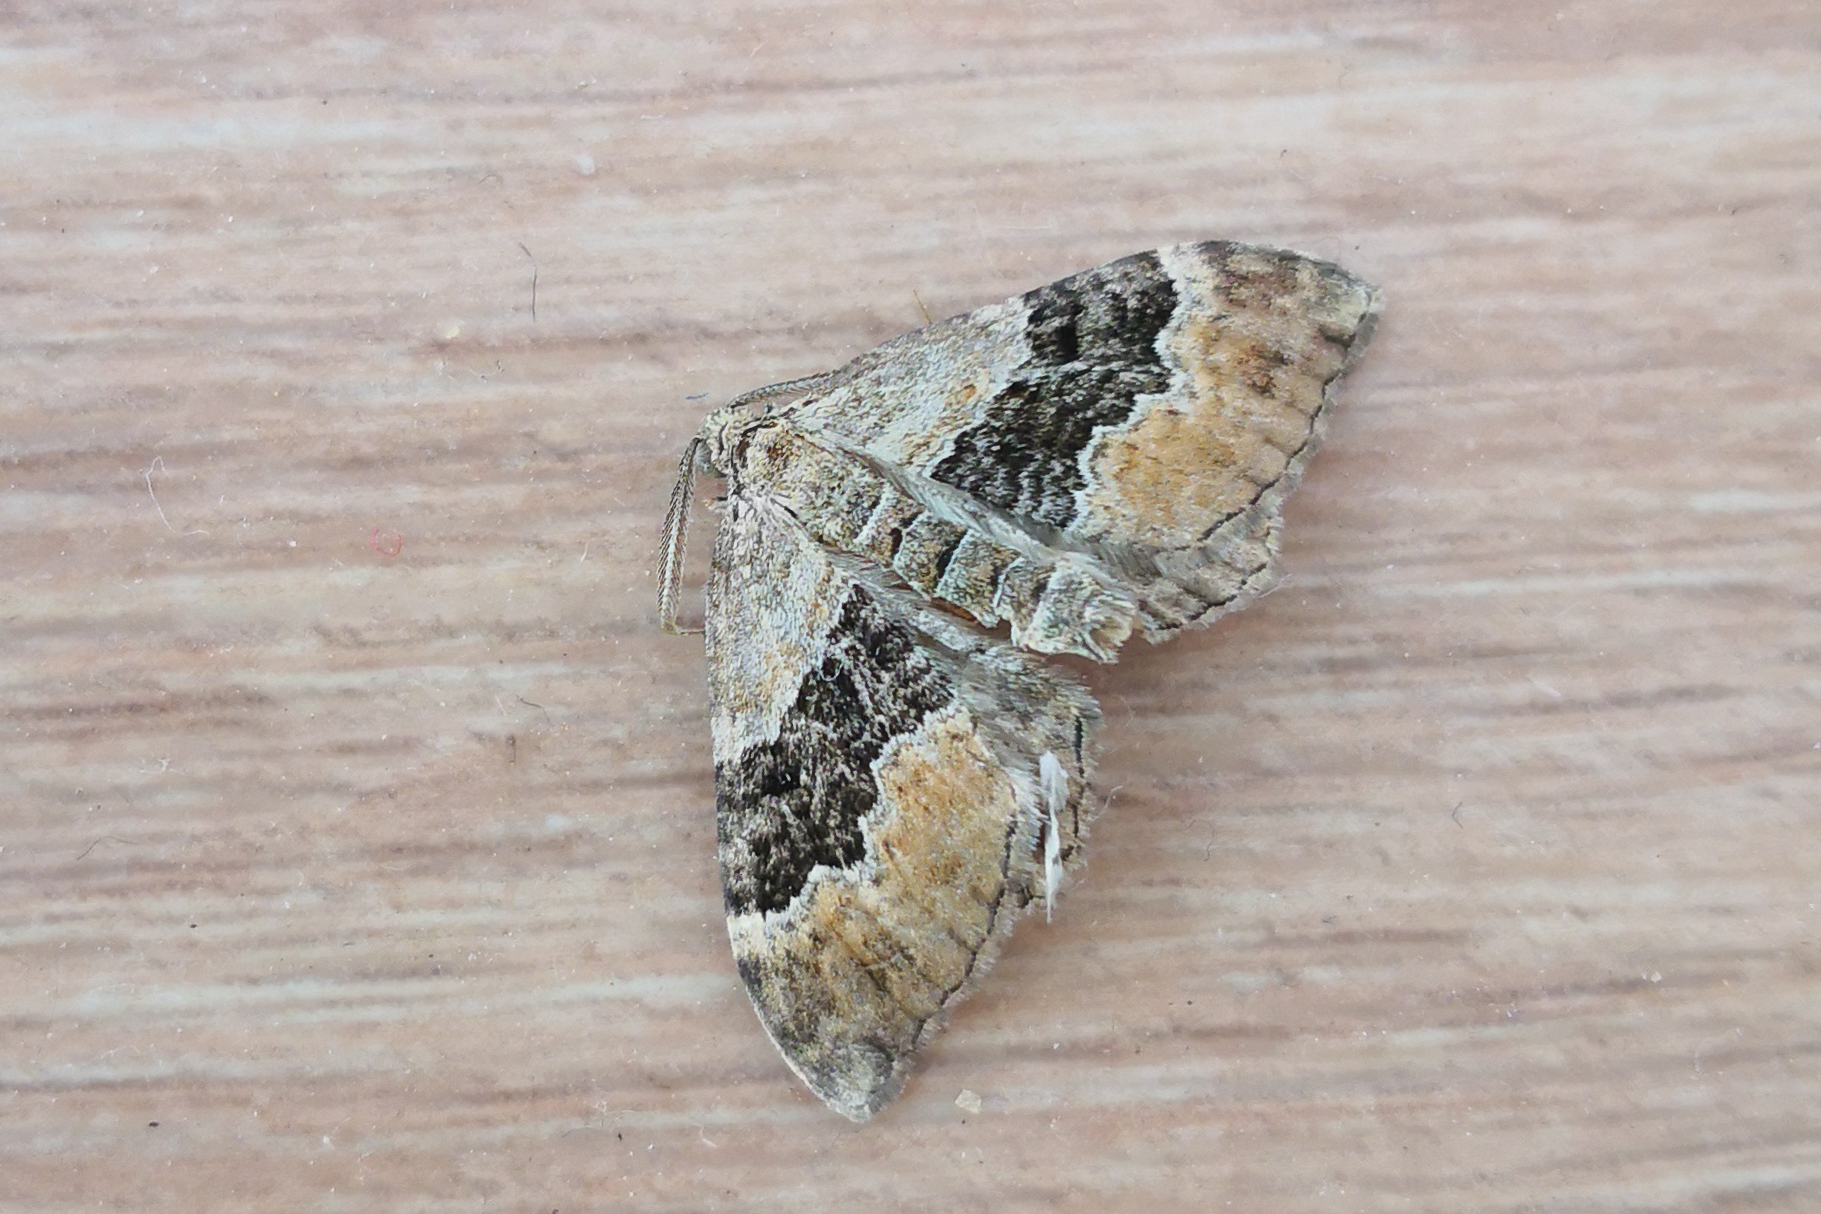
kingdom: Animalia
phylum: Arthropoda
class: Insecta
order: Lepidoptera
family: Geometridae
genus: Xanthorhoe
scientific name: Xanthorhoe quadrifasiata
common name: Large twin-spot carpet
